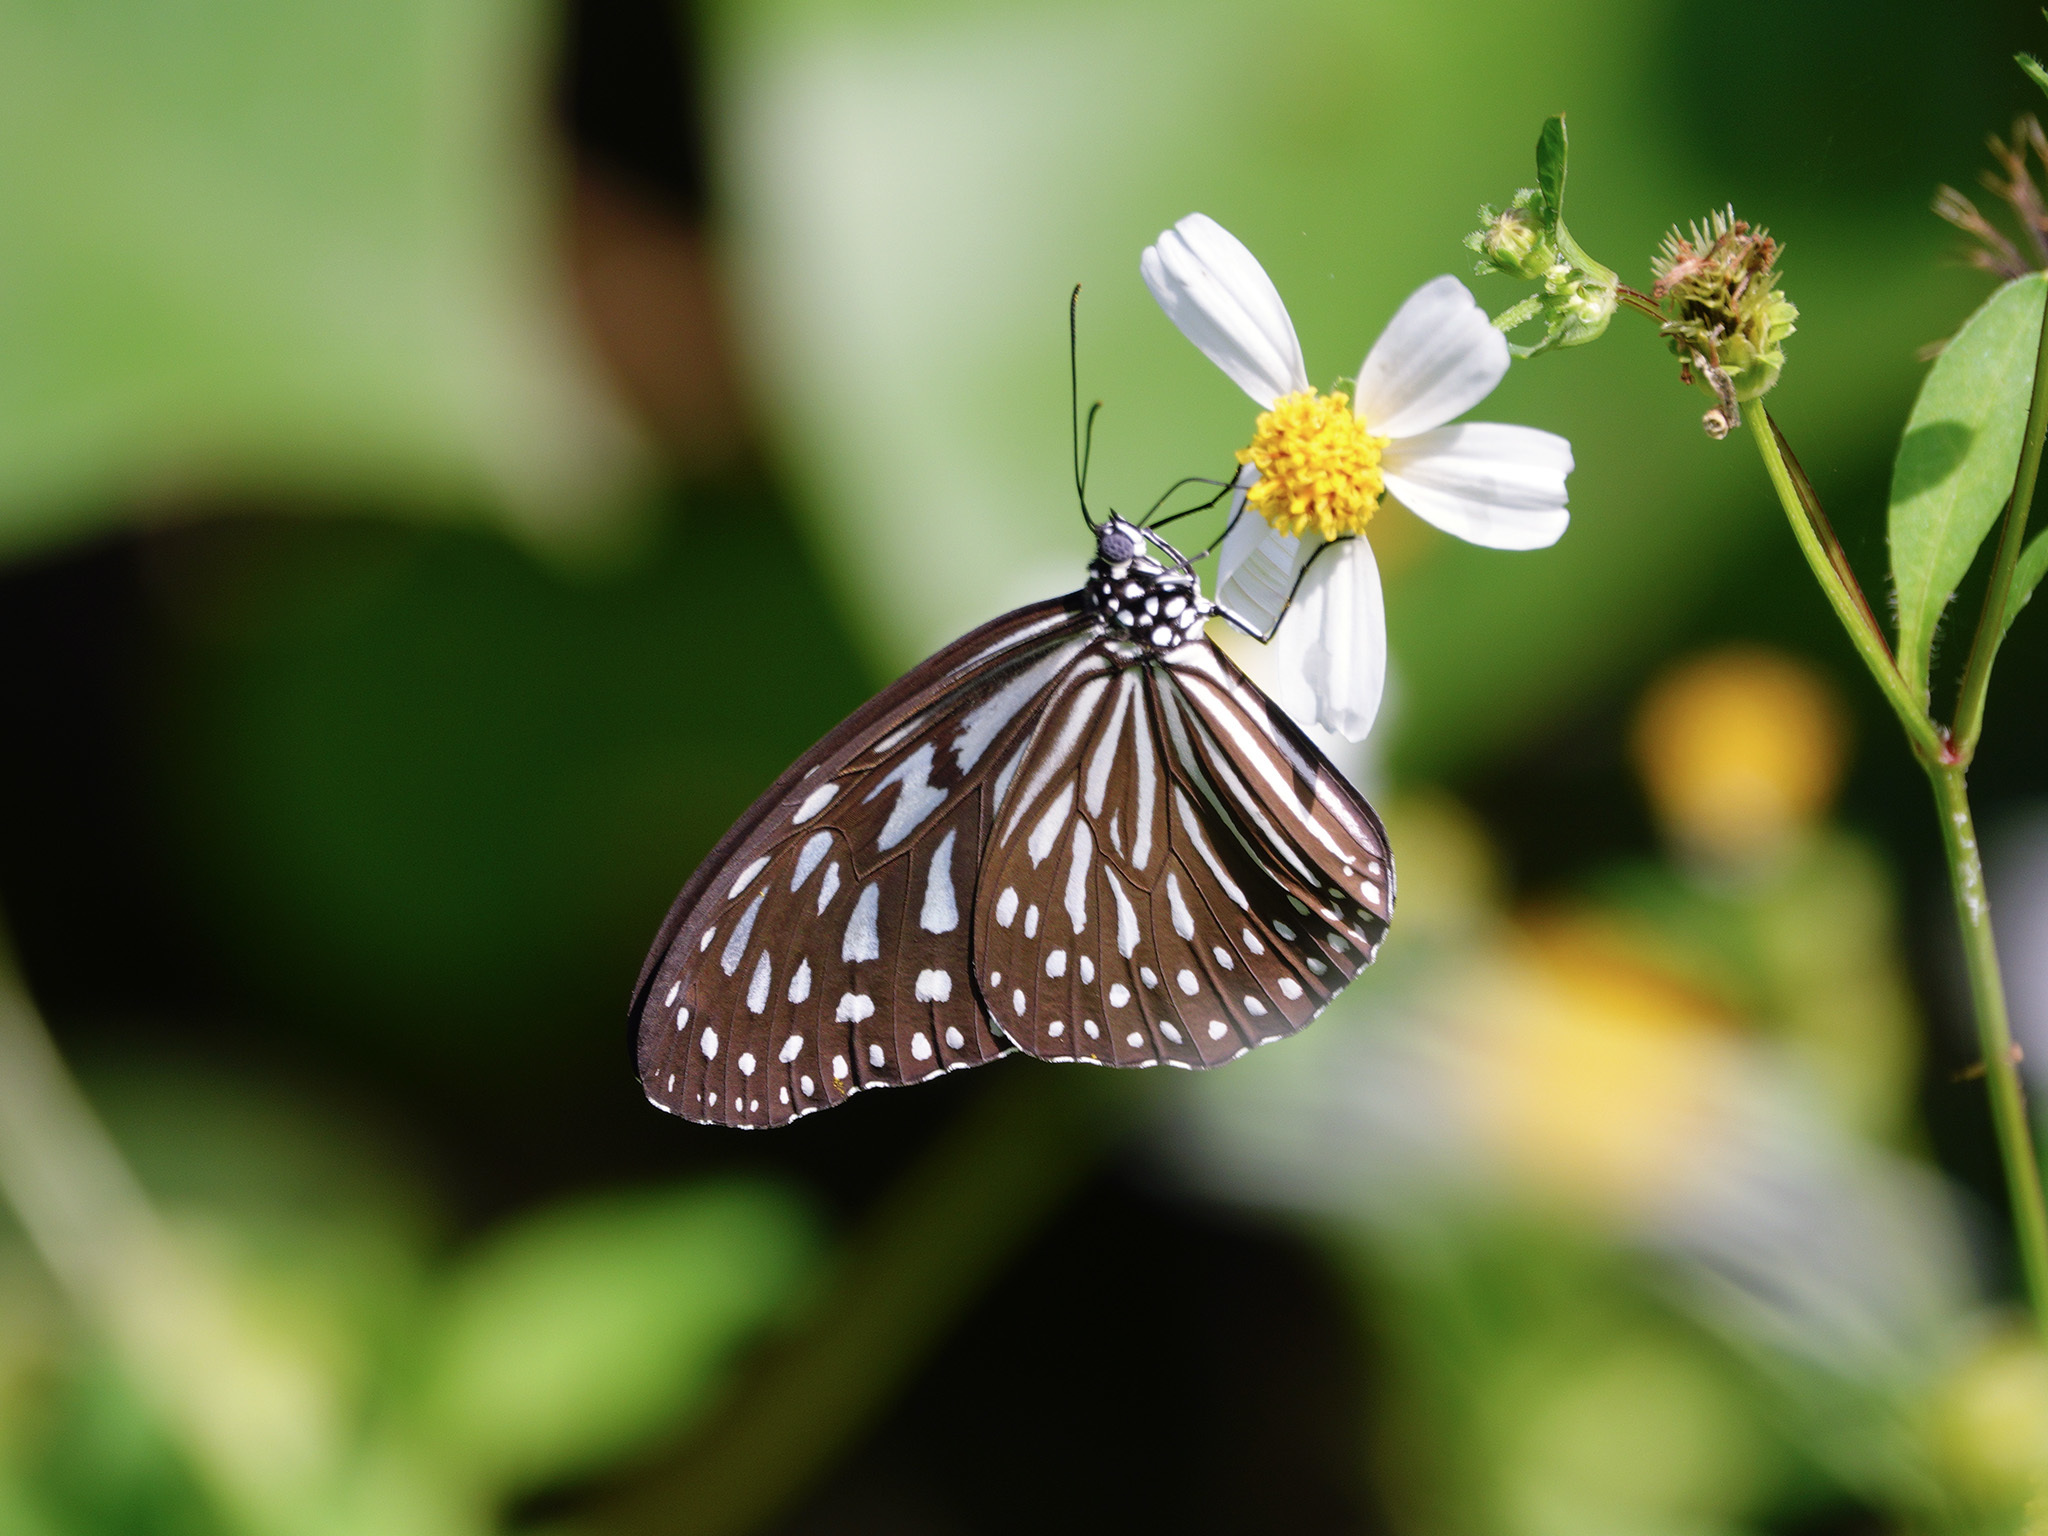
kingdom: Animalia
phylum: Arthropoda
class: Insecta
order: Lepidoptera
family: Nymphalidae
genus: Ideopsis
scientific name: Ideopsis vulgaris
